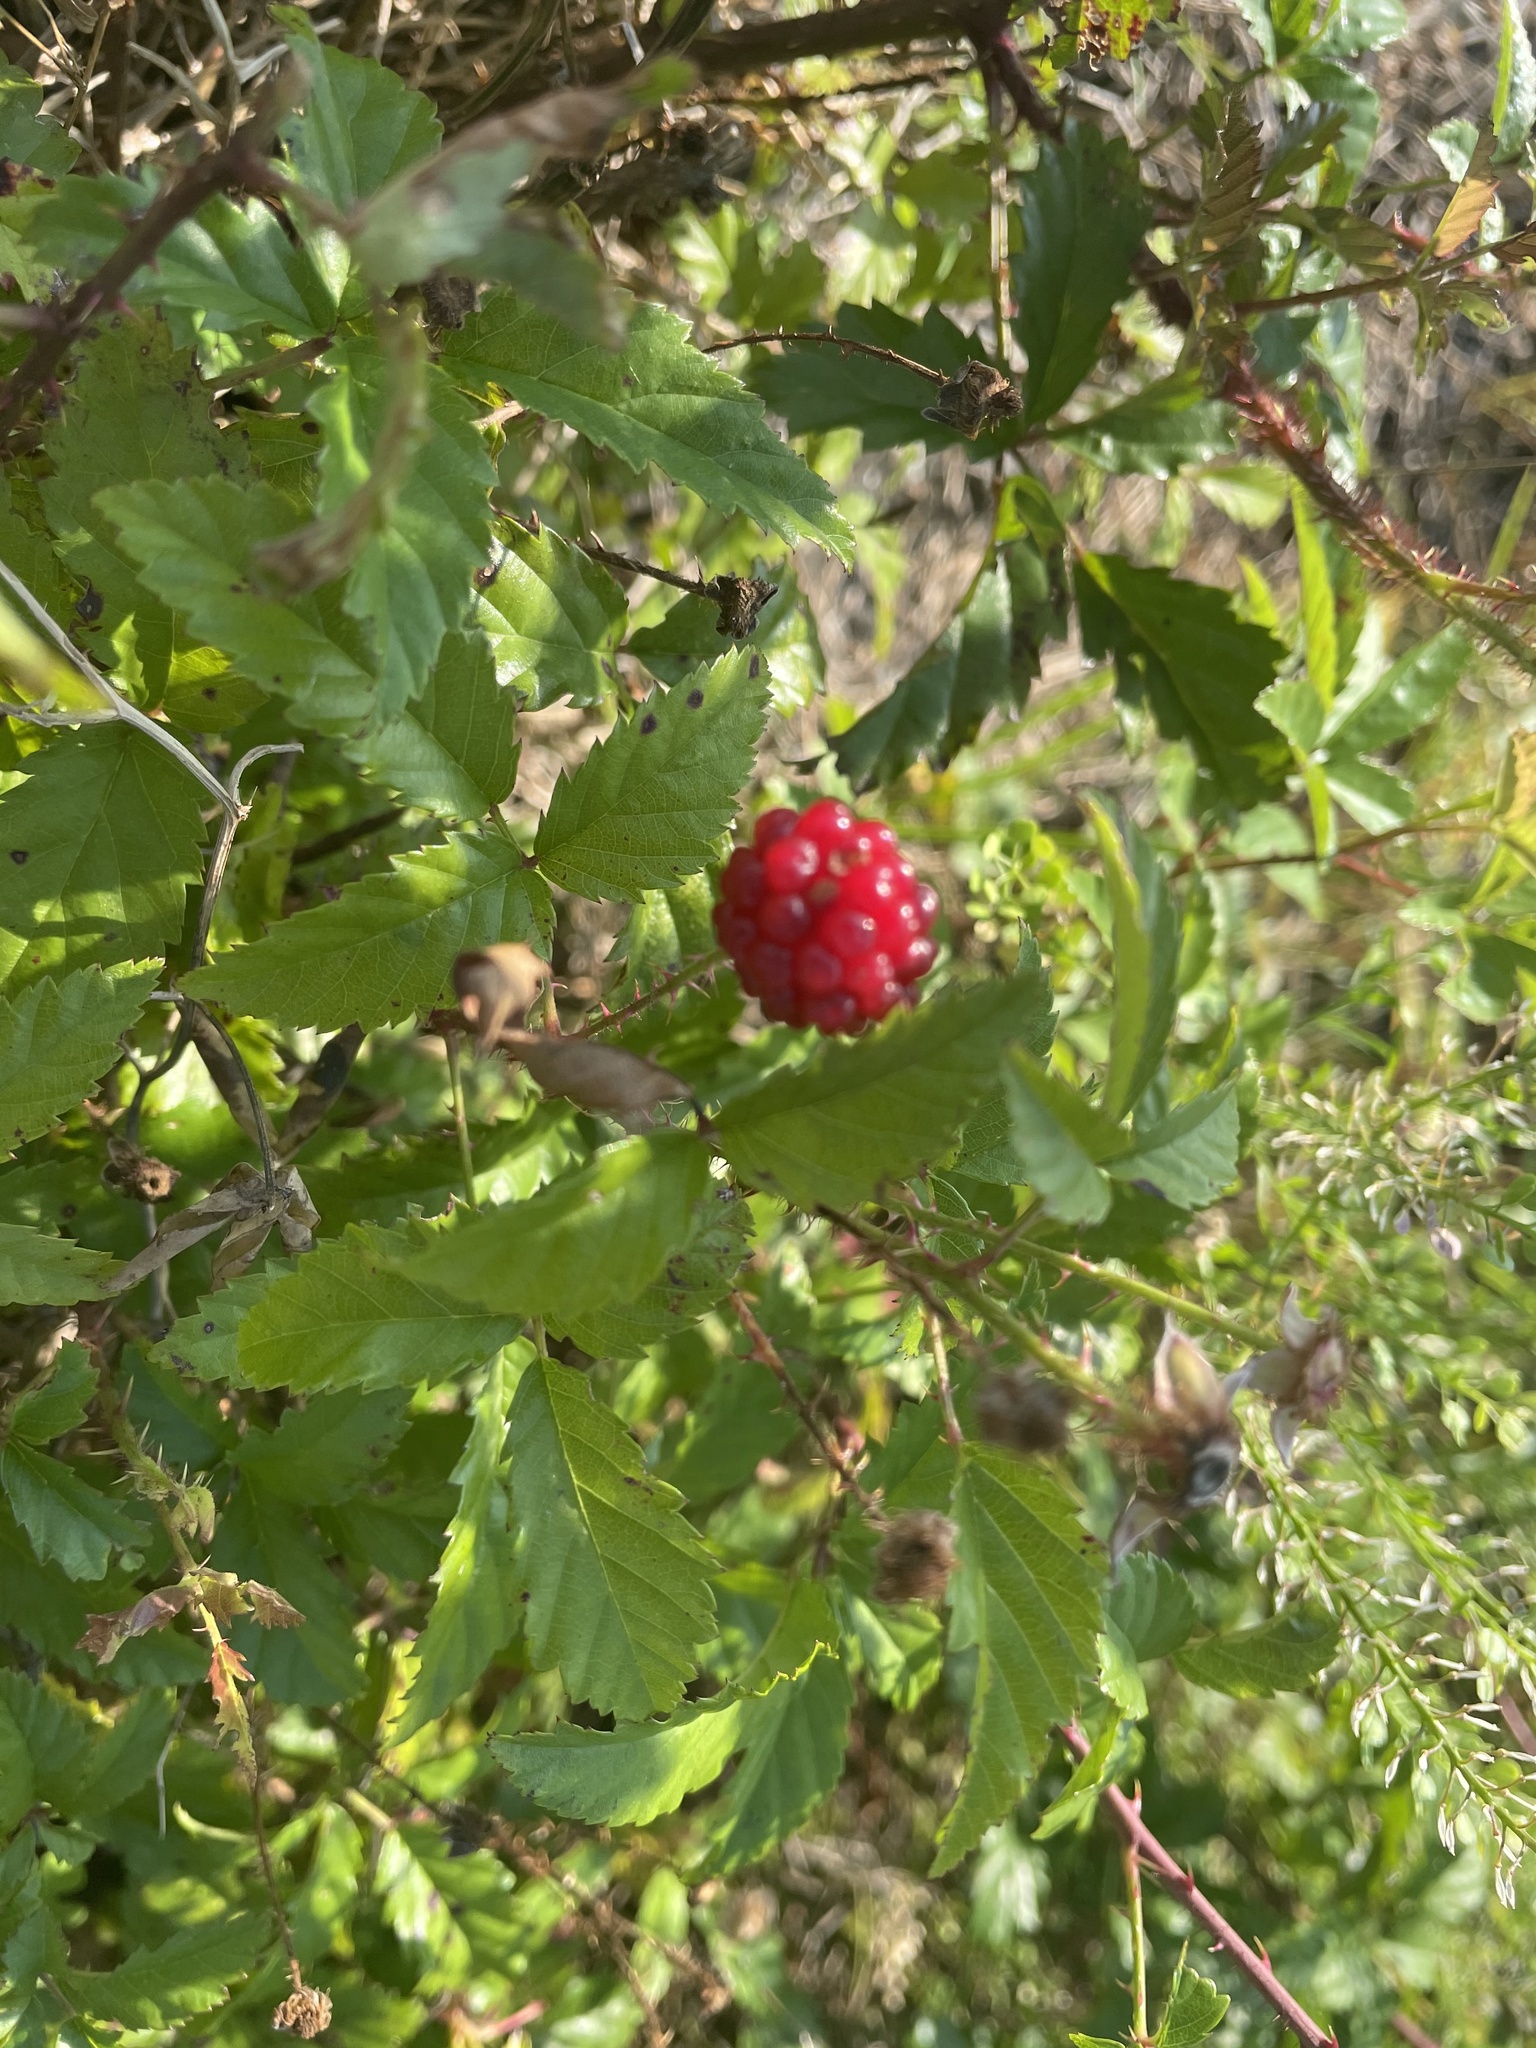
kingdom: Plantae
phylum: Tracheophyta
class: Magnoliopsida
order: Rosales
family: Rosaceae
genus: Rubus
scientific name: Rubus trivialis
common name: Southern dewberry
